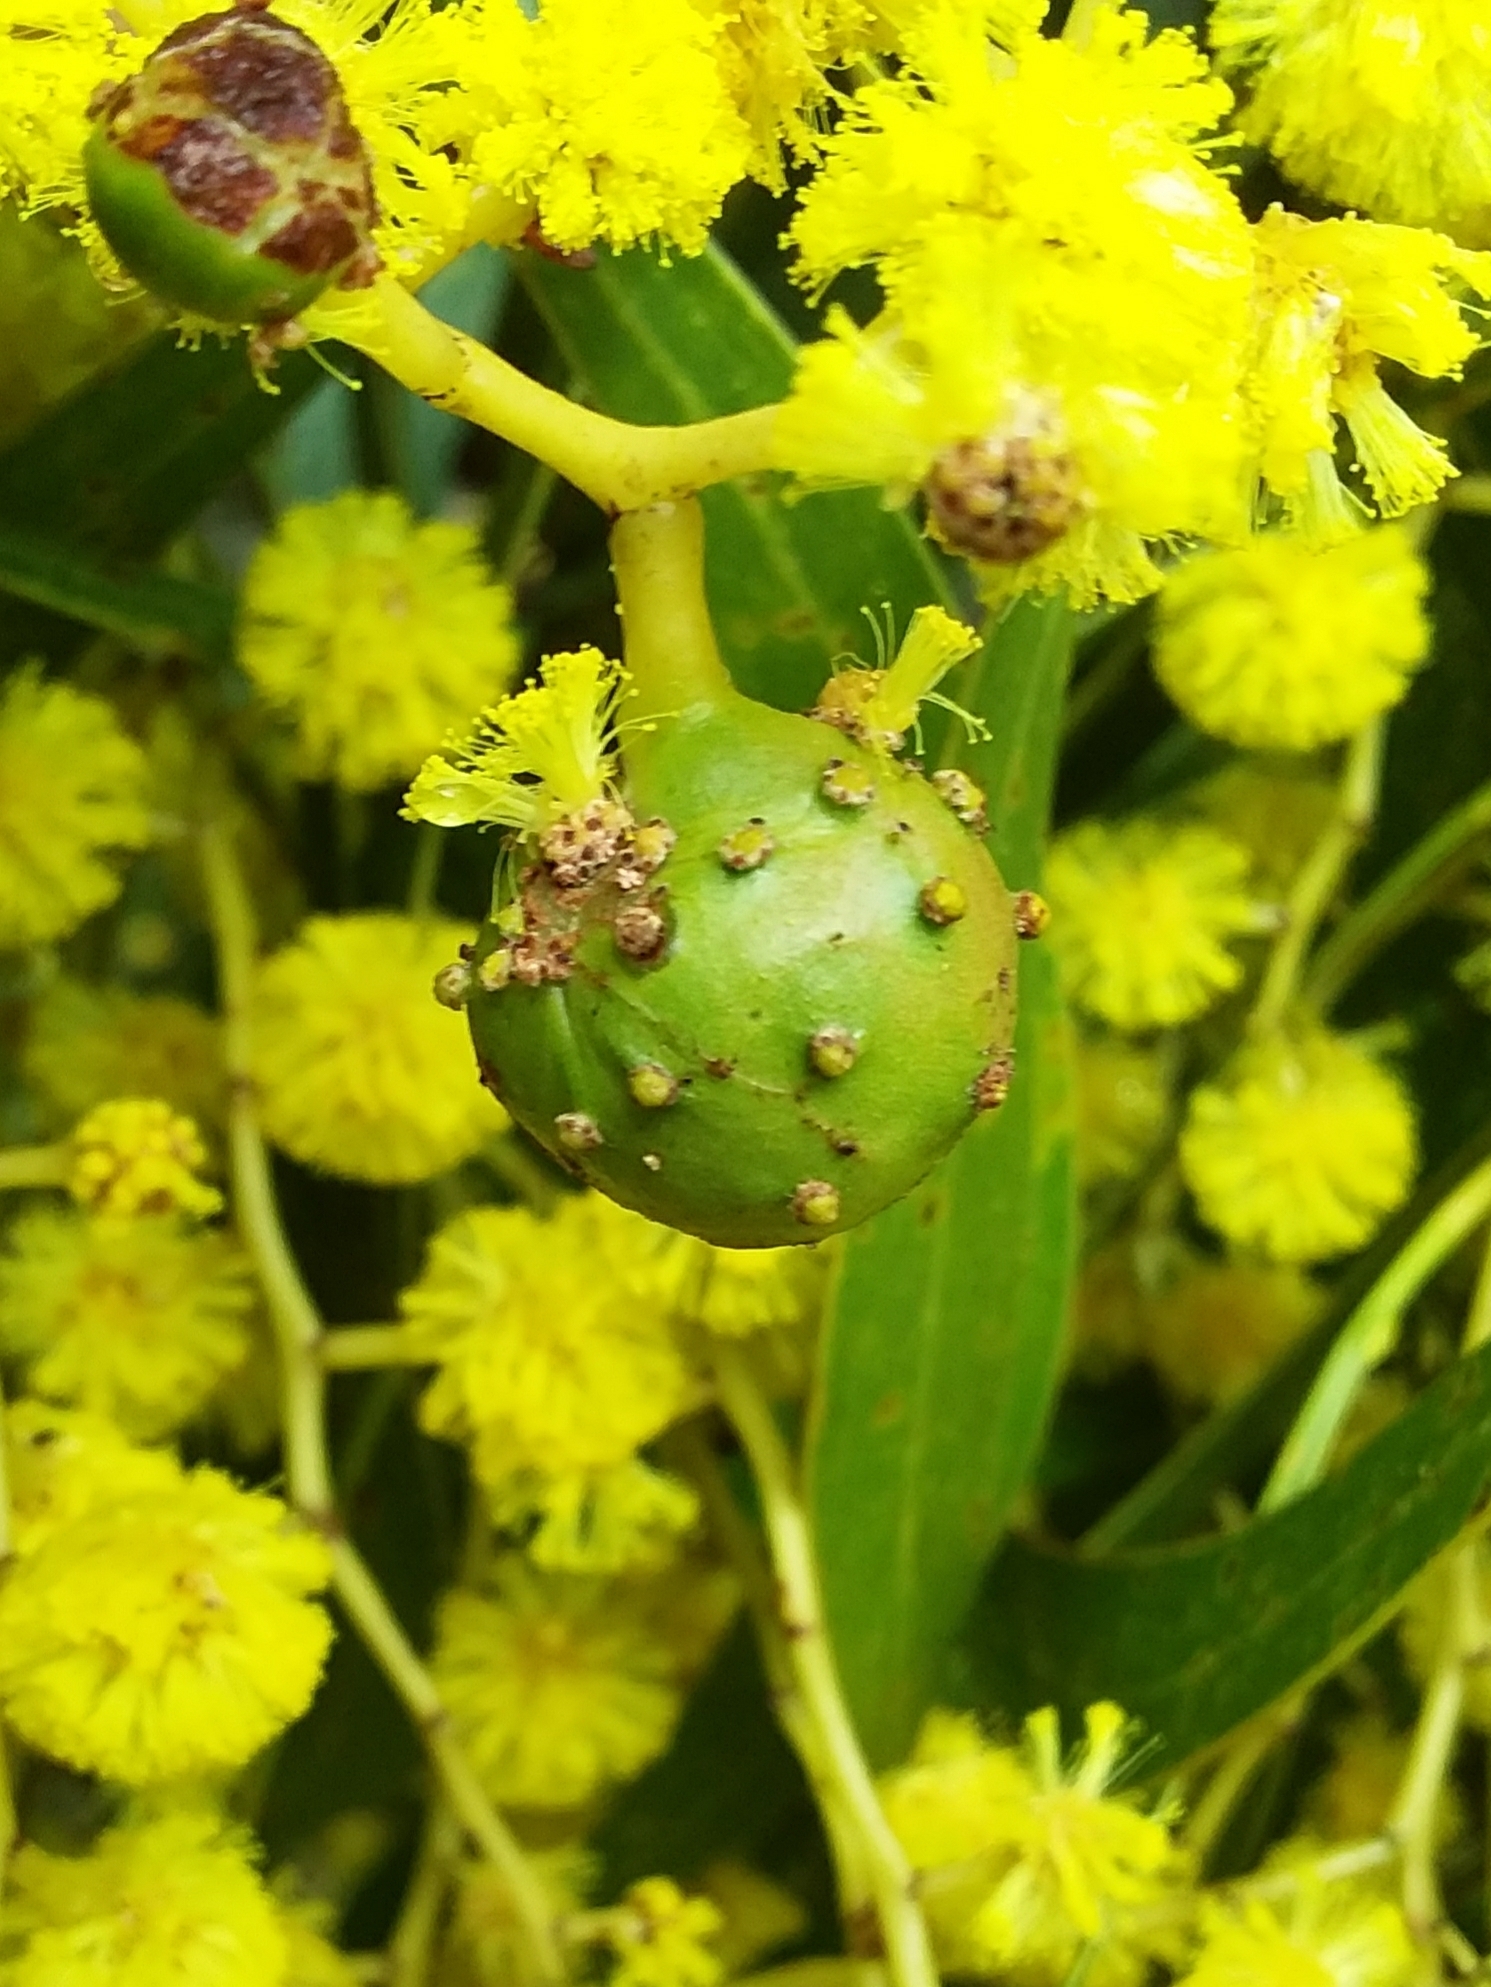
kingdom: Animalia
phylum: Arthropoda
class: Insecta
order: Hymenoptera
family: Pteromalidae
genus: Trichilogaster
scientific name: Trichilogaster signiventris
